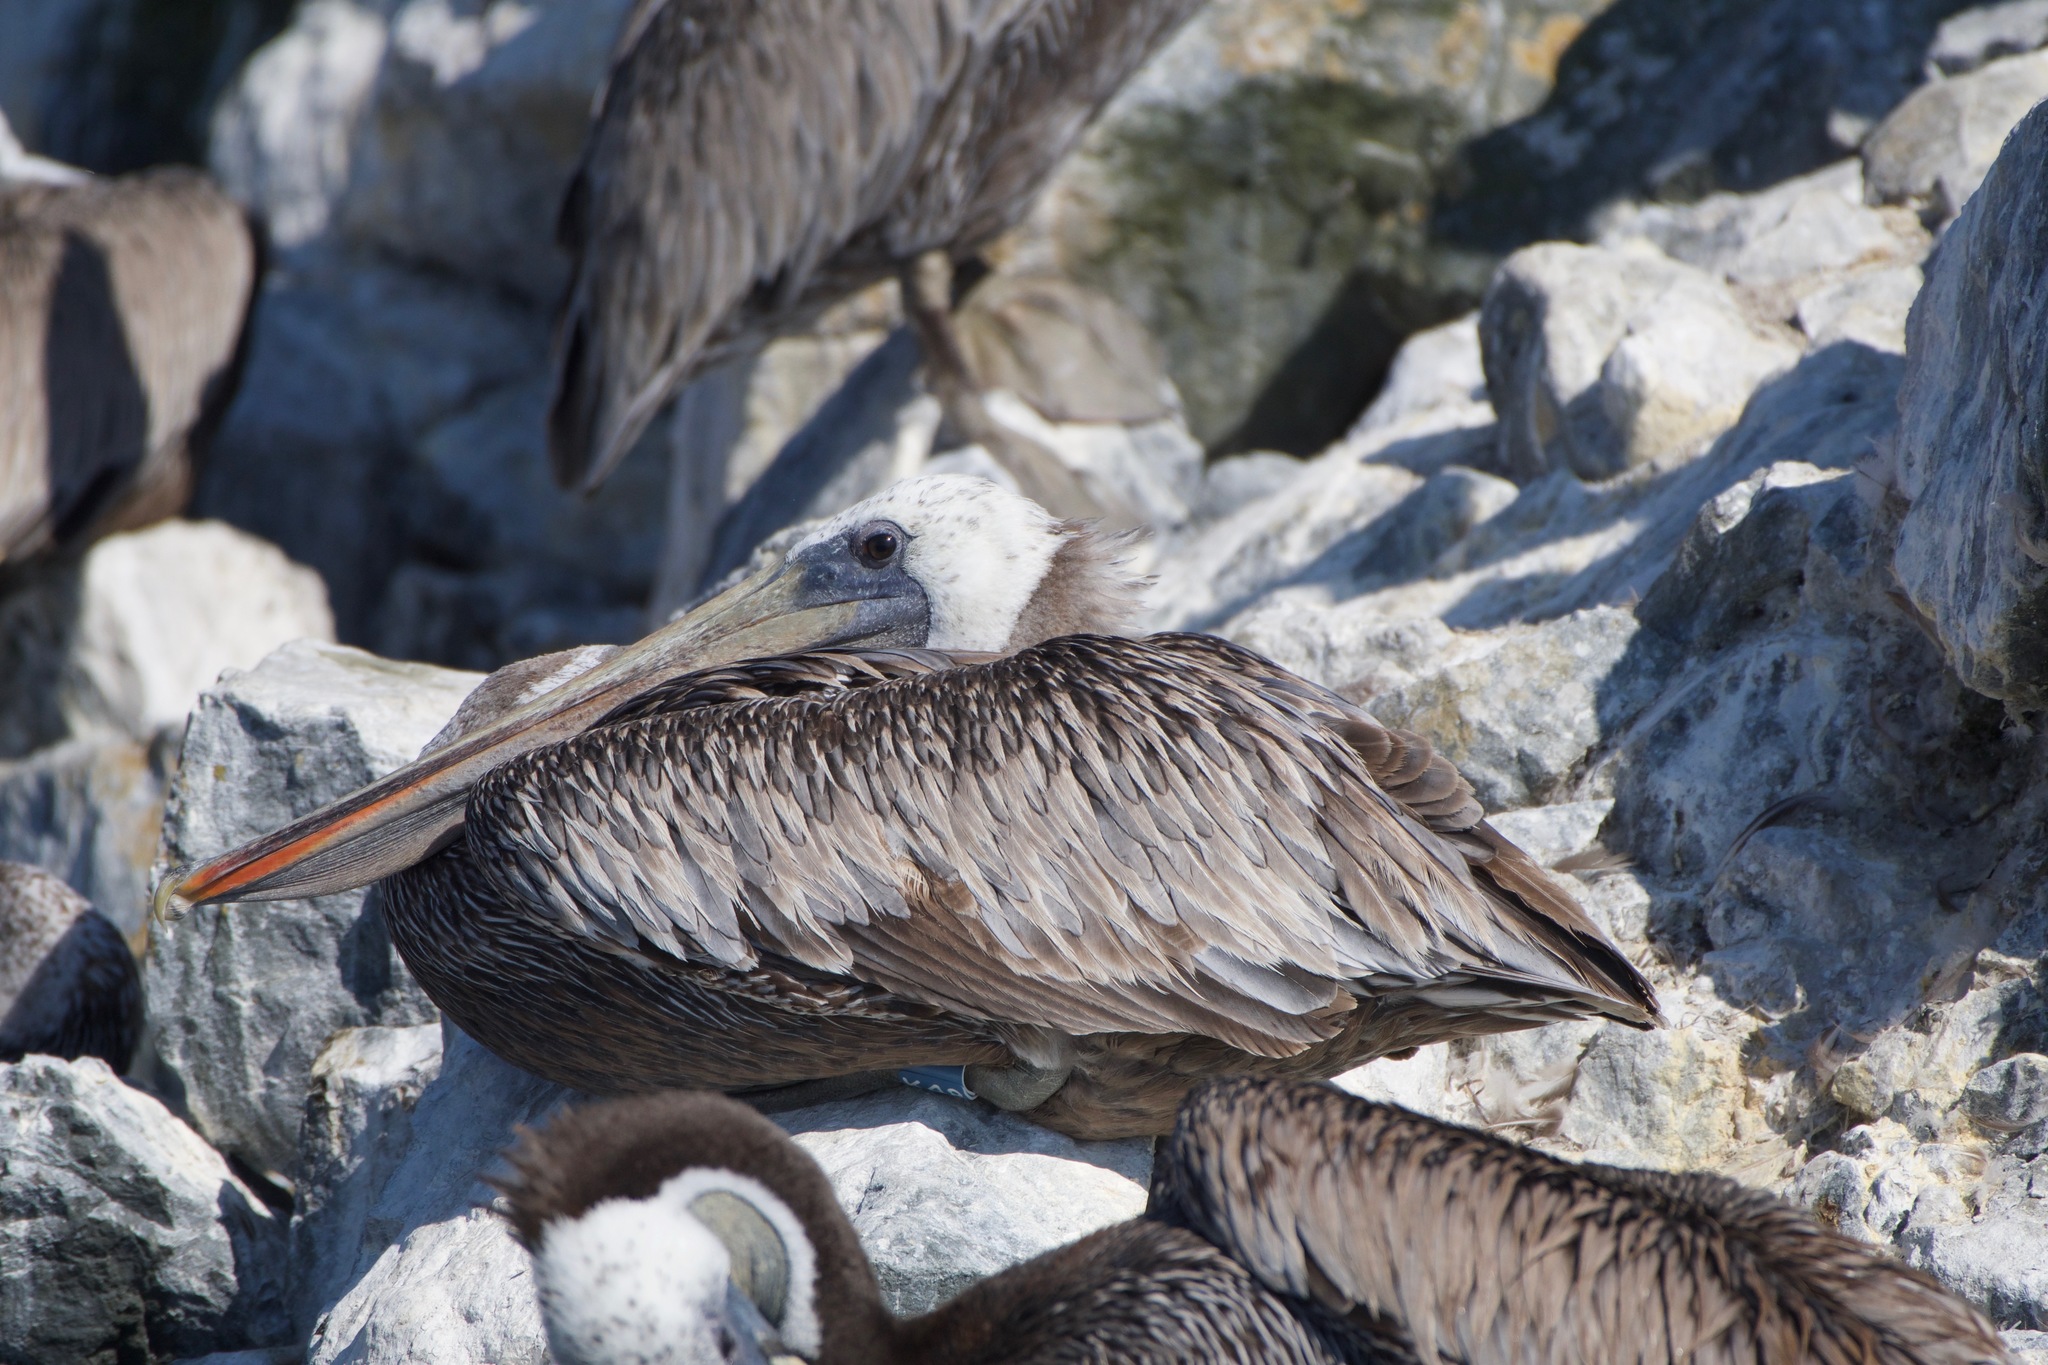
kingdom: Animalia
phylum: Chordata
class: Aves
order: Pelecaniformes
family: Pelecanidae
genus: Pelecanus
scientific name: Pelecanus occidentalis
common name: Brown pelican
